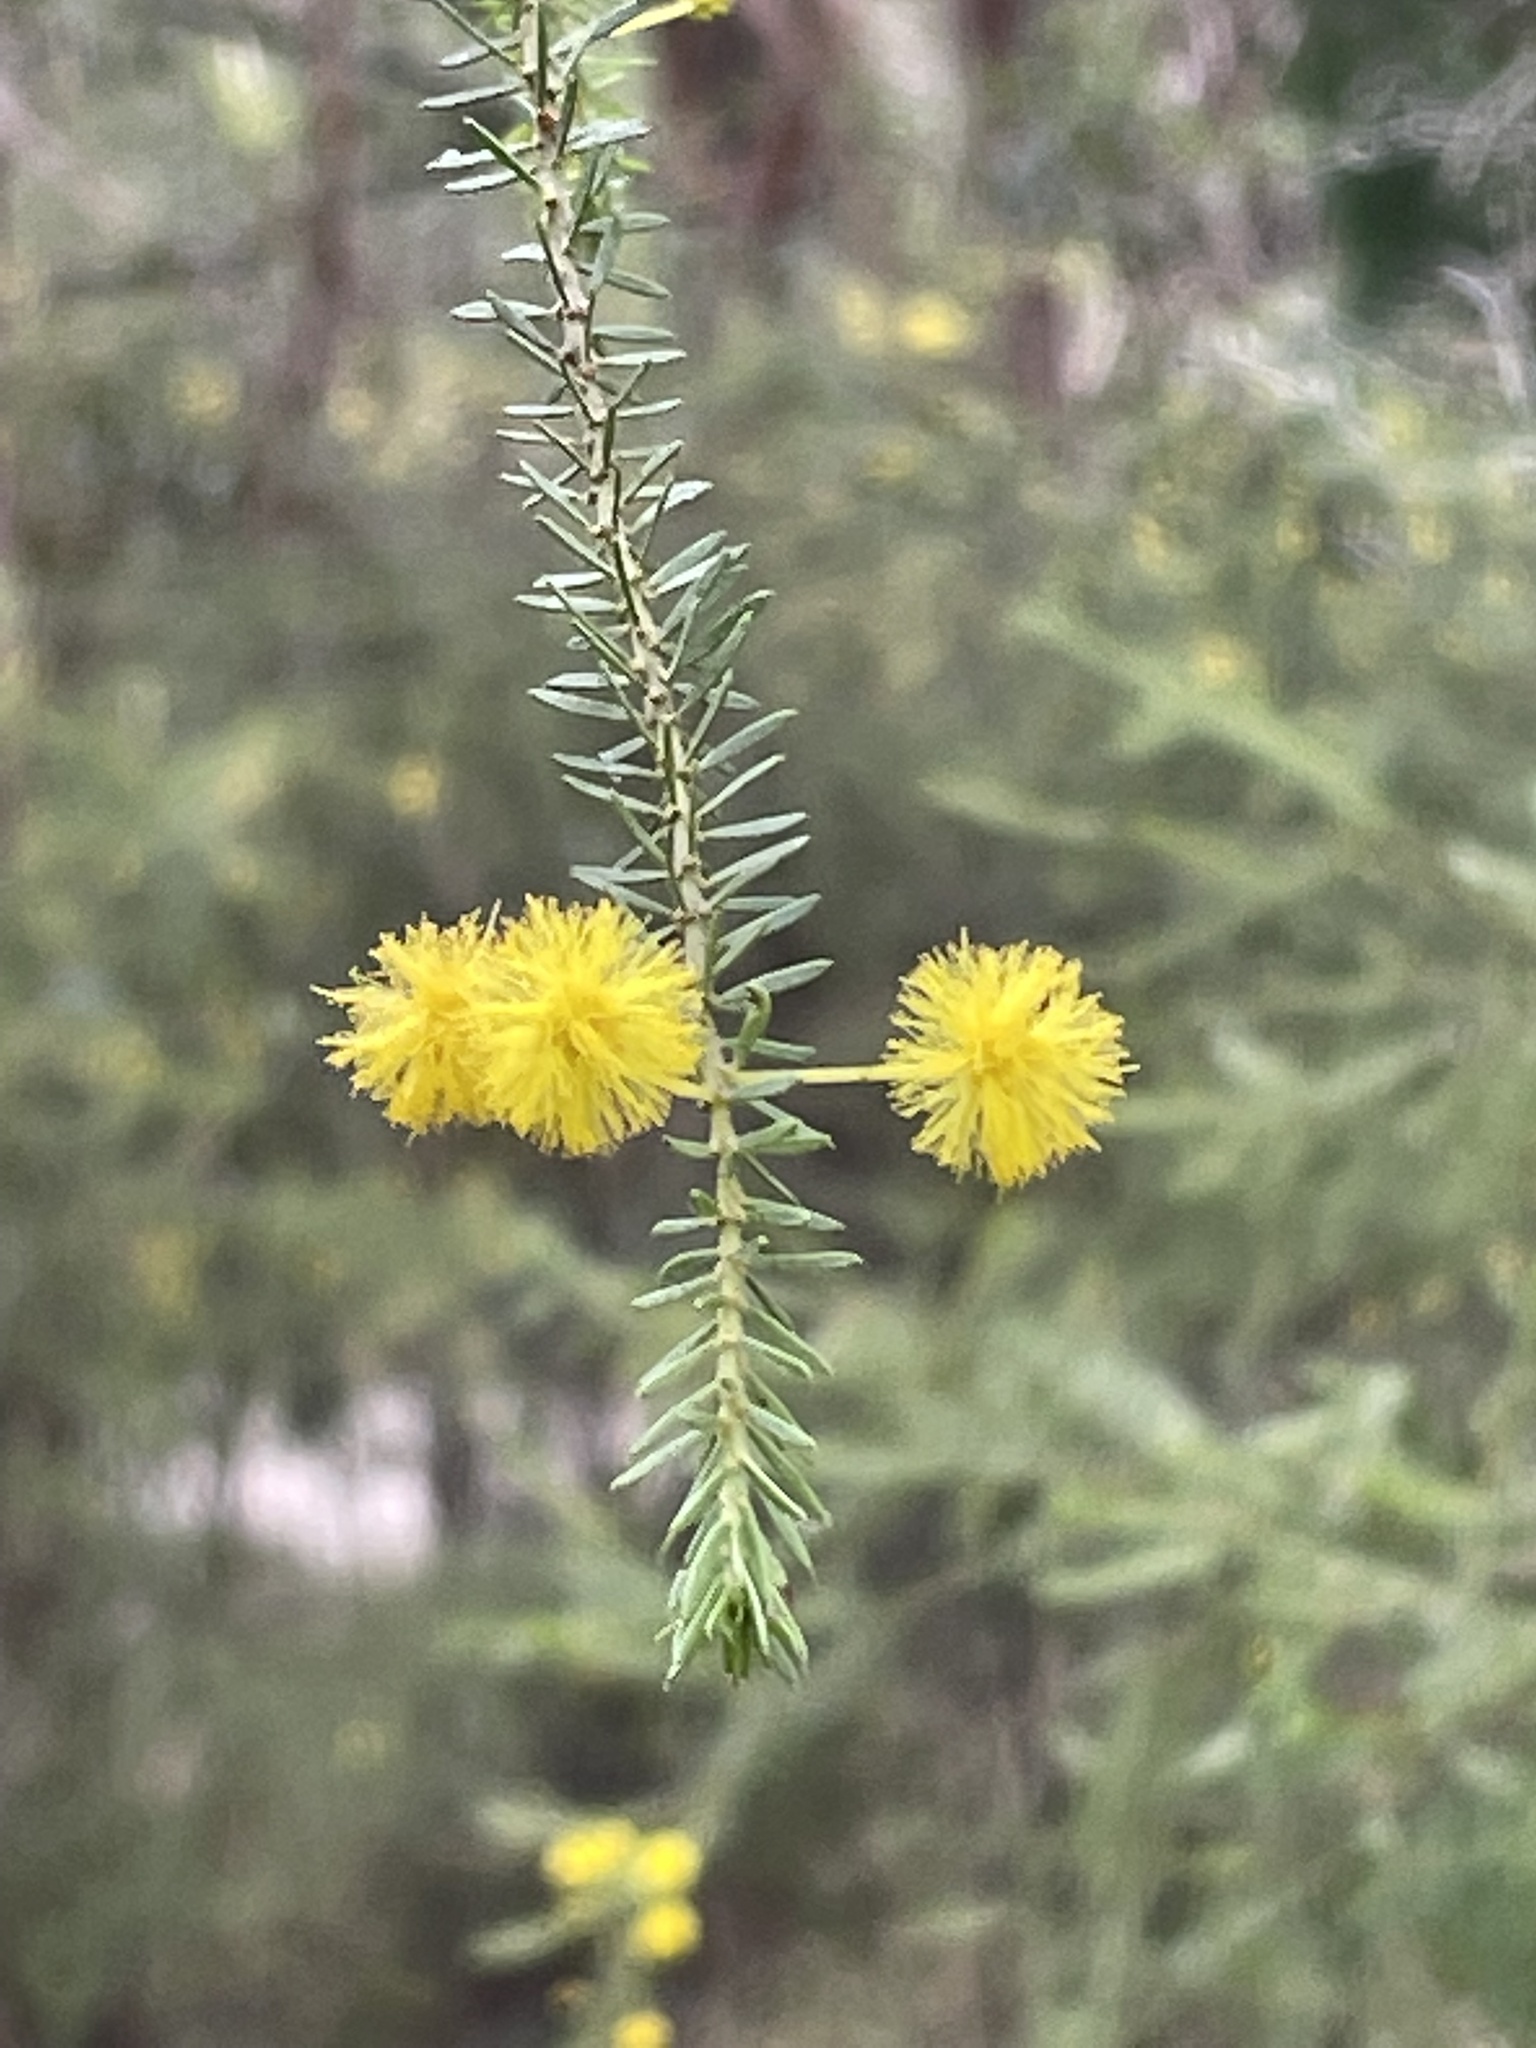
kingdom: Plantae
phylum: Tracheophyta
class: Magnoliopsida
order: Fabales
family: Fabaceae
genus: Acacia
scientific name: Acacia conferta
